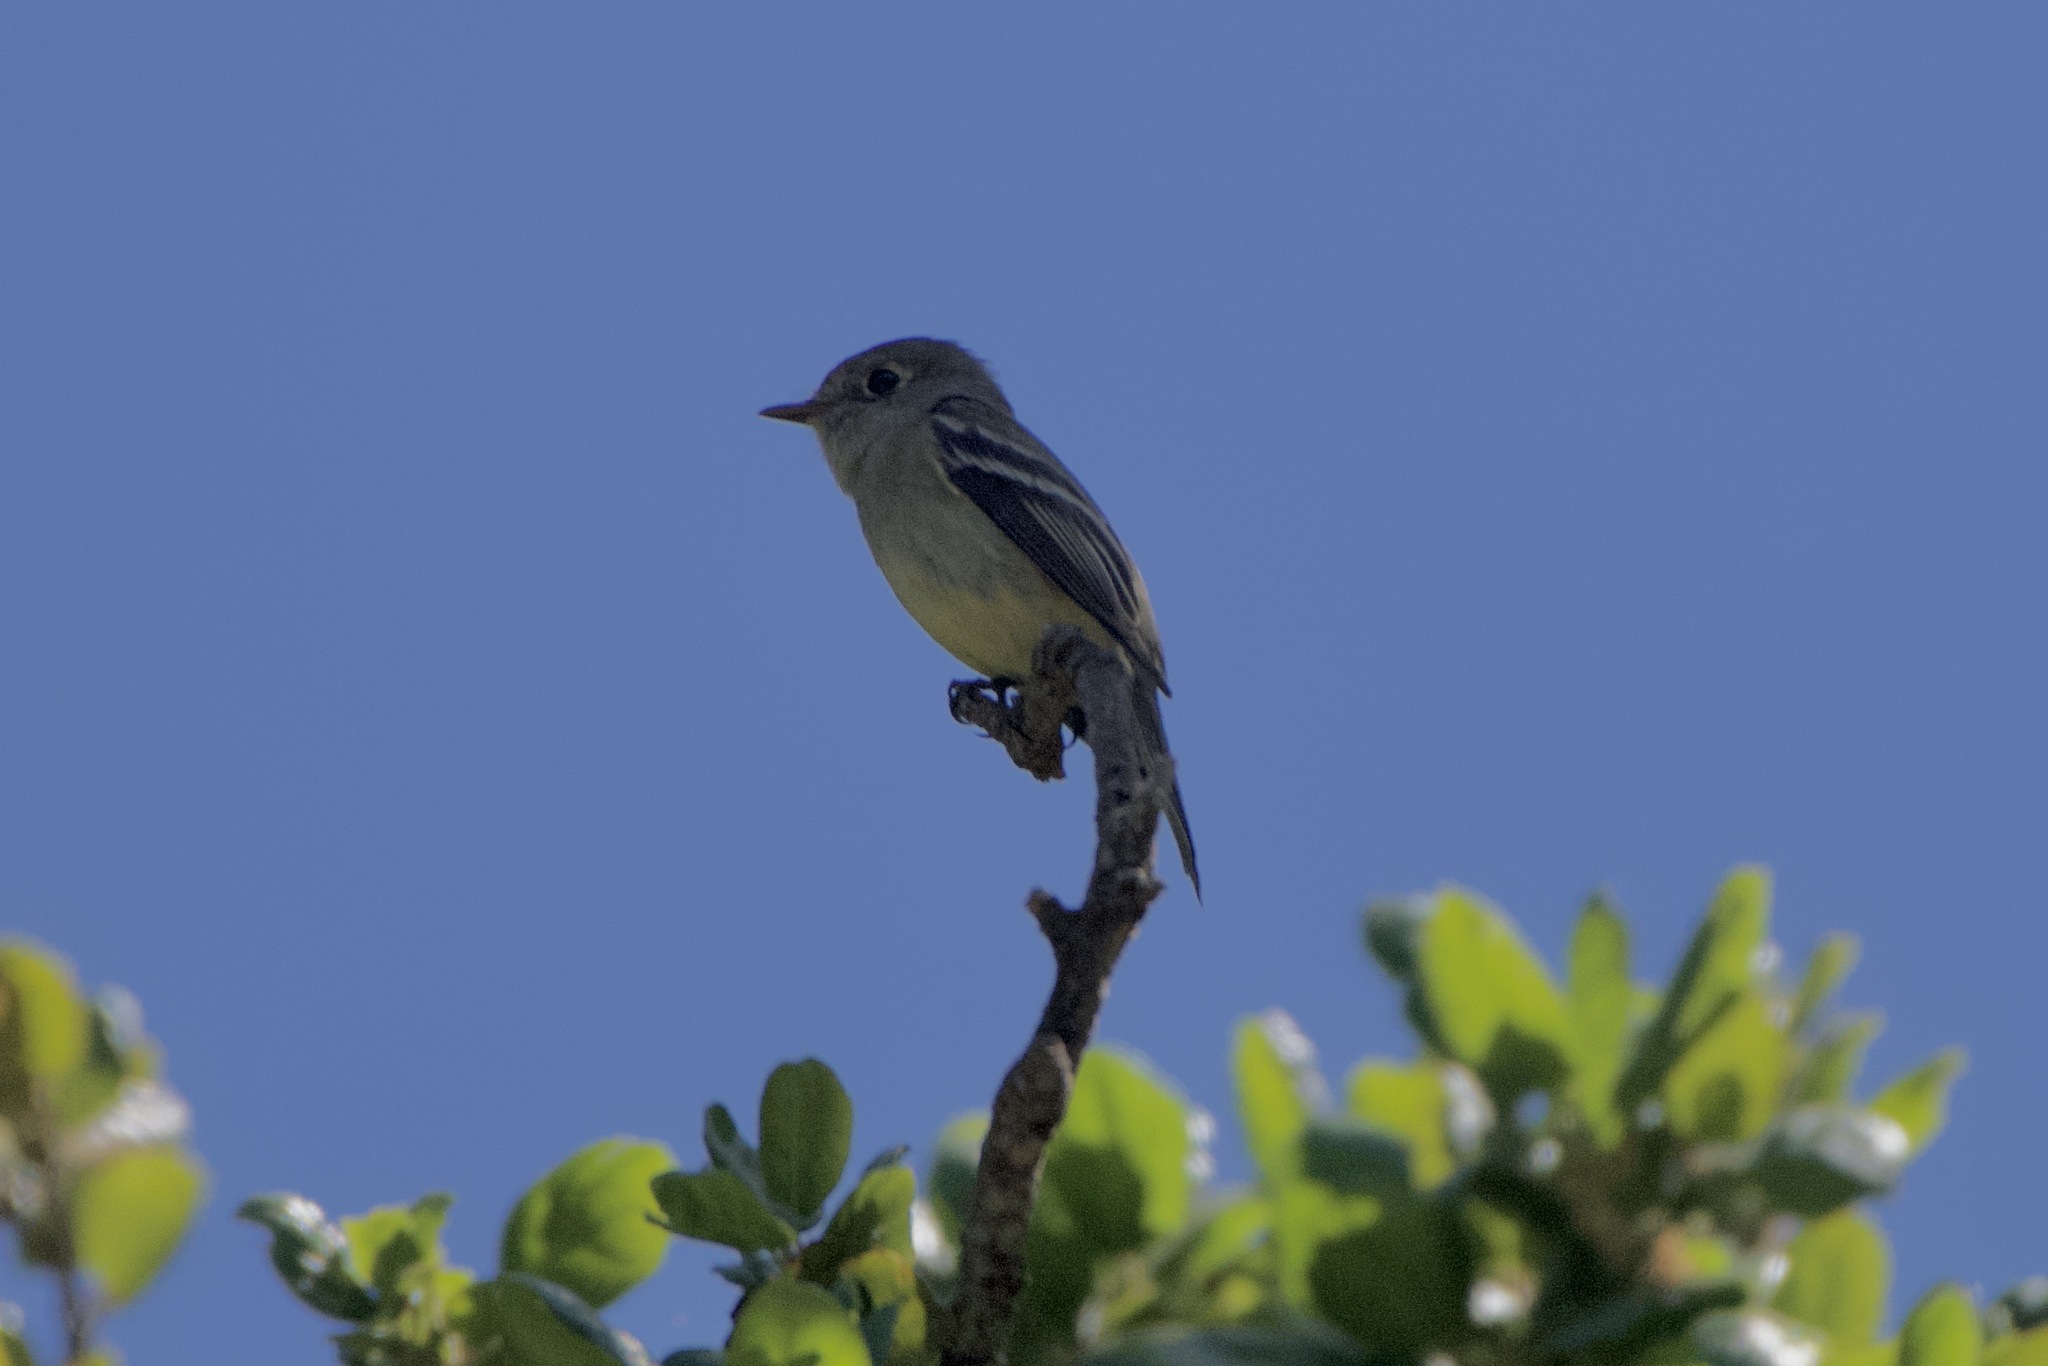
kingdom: Animalia
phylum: Chordata
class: Aves
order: Passeriformes
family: Tyrannidae
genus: Empidonax
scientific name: Empidonax hammondii
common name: Hammond's flycatcher
